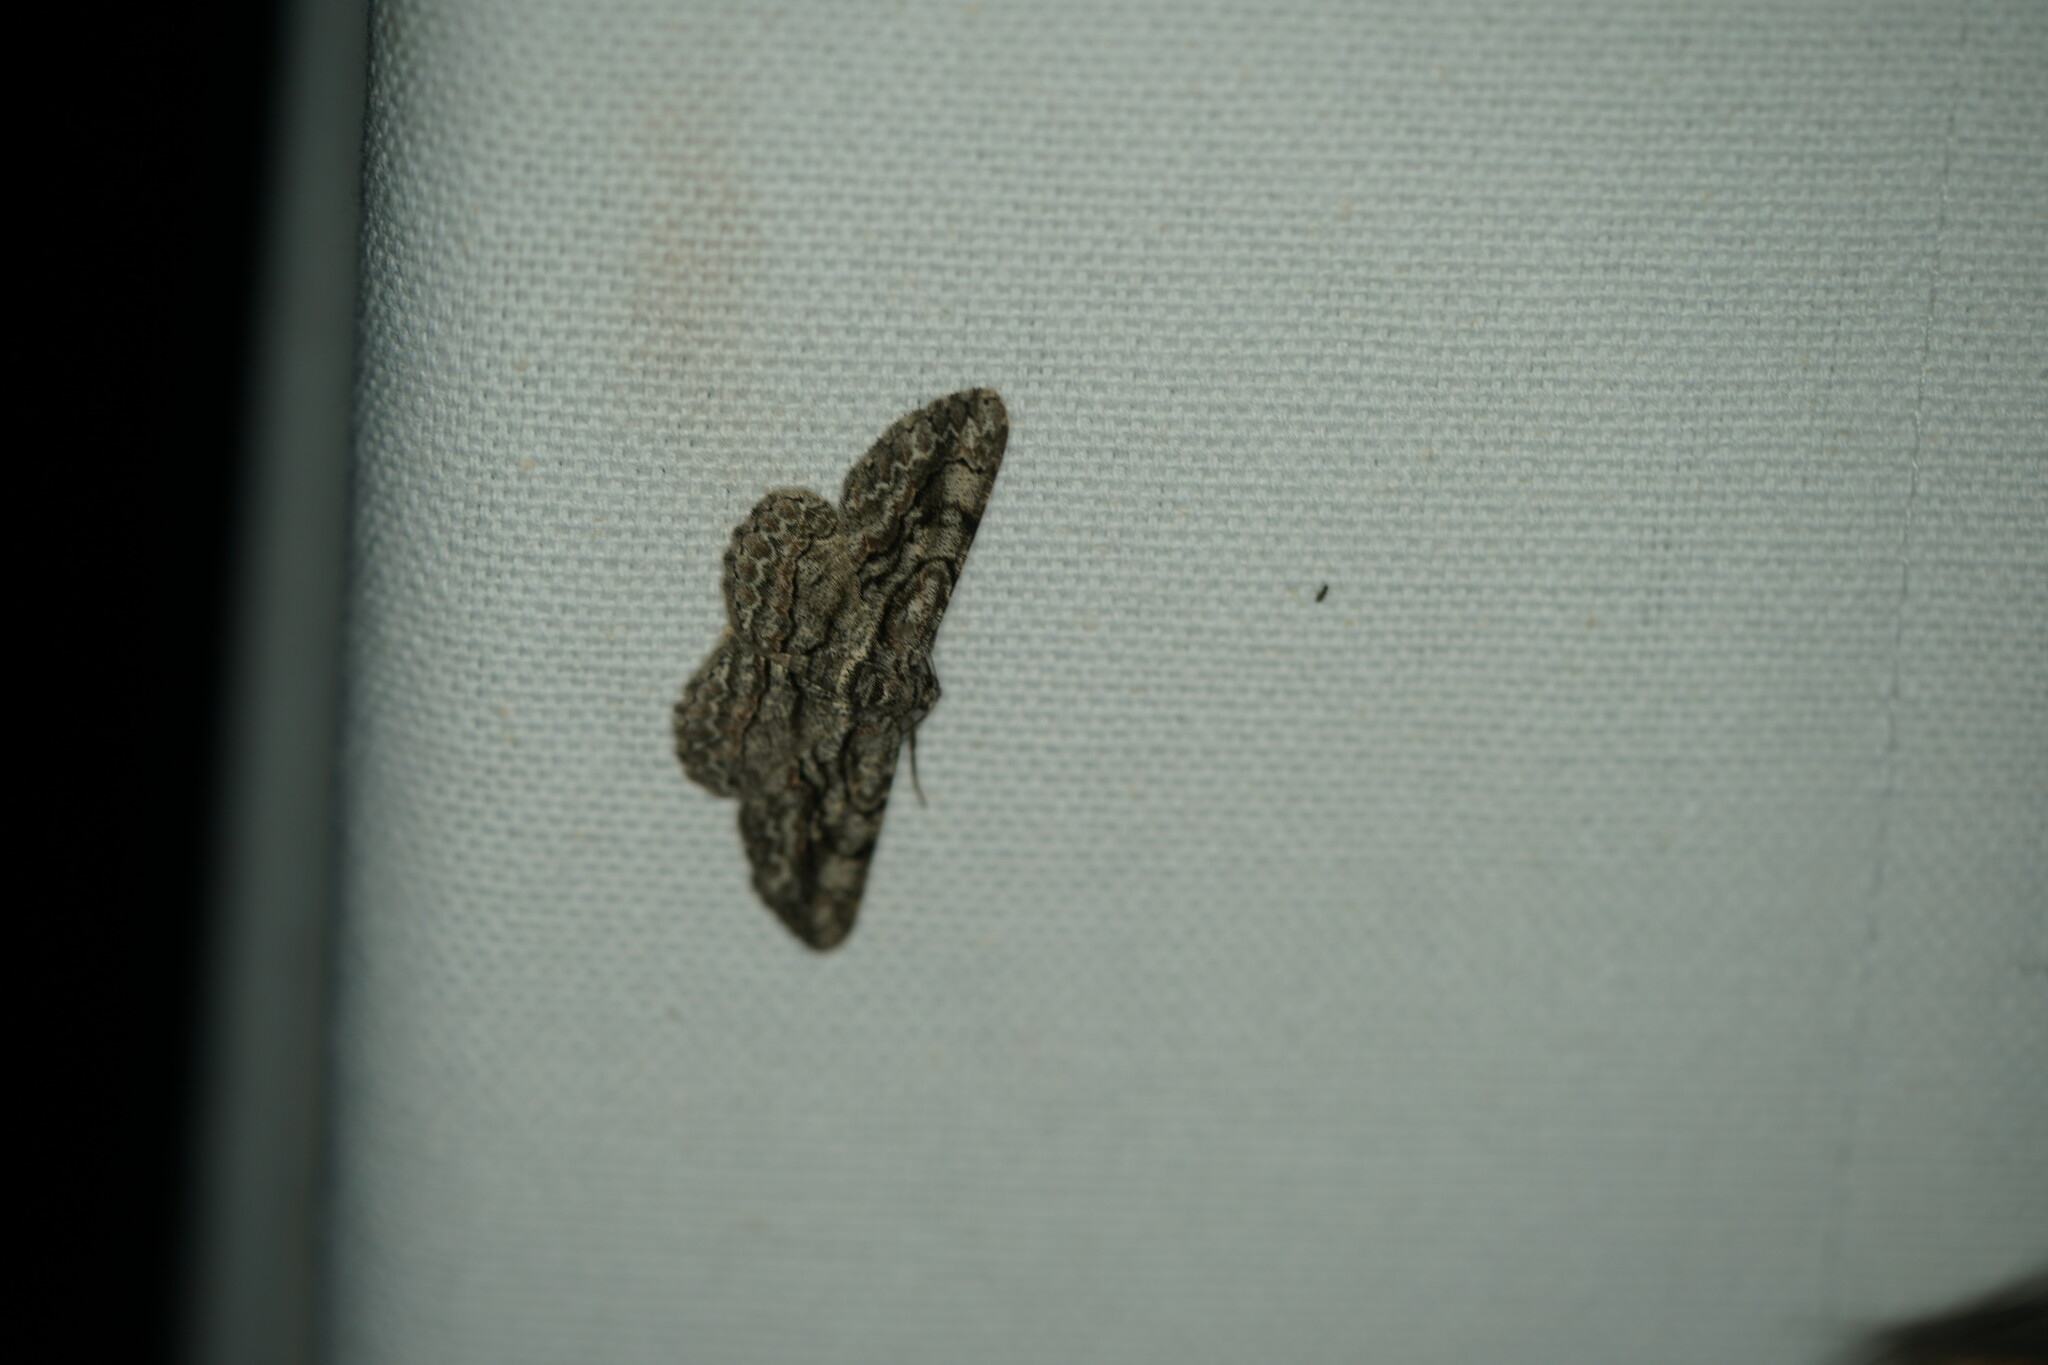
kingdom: Animalia
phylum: Arthropoda
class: Insecta
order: Lepidoptera
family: Geometridae
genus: Anavitrinella
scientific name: Anavitrinella pampinaria
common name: Common gray
